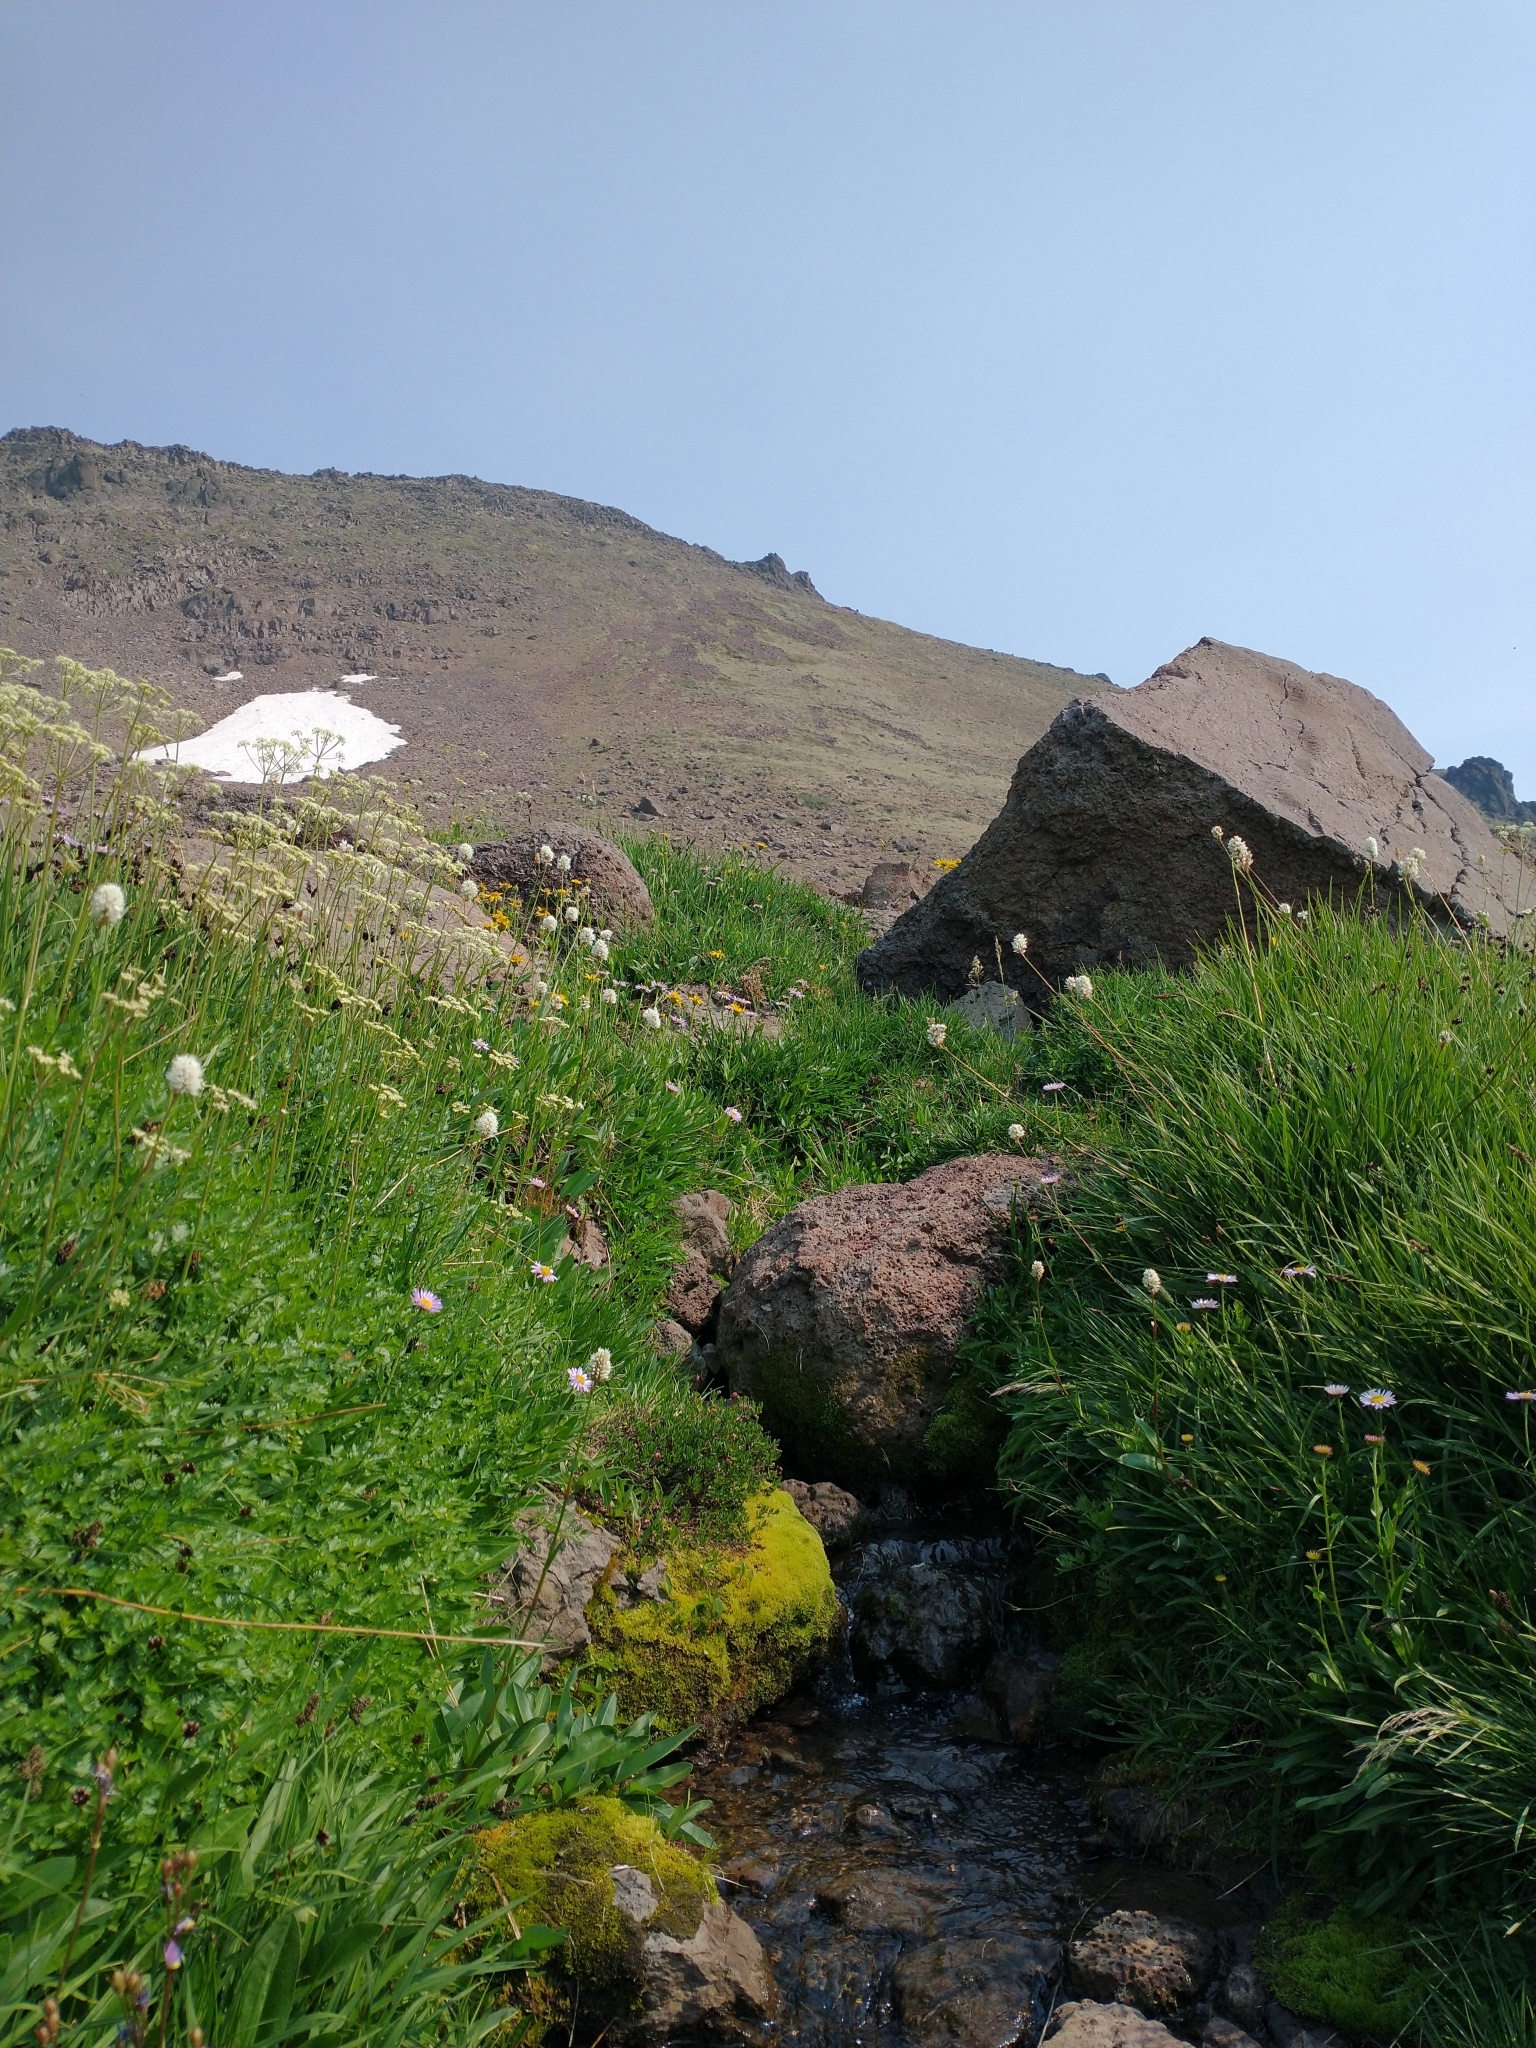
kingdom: Plantae
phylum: Tracheophyta
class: Magnoliopsida
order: Caryophyllales
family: Polygonaceae
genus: Bistorta
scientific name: Bistorta bistortoides
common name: American bistort
